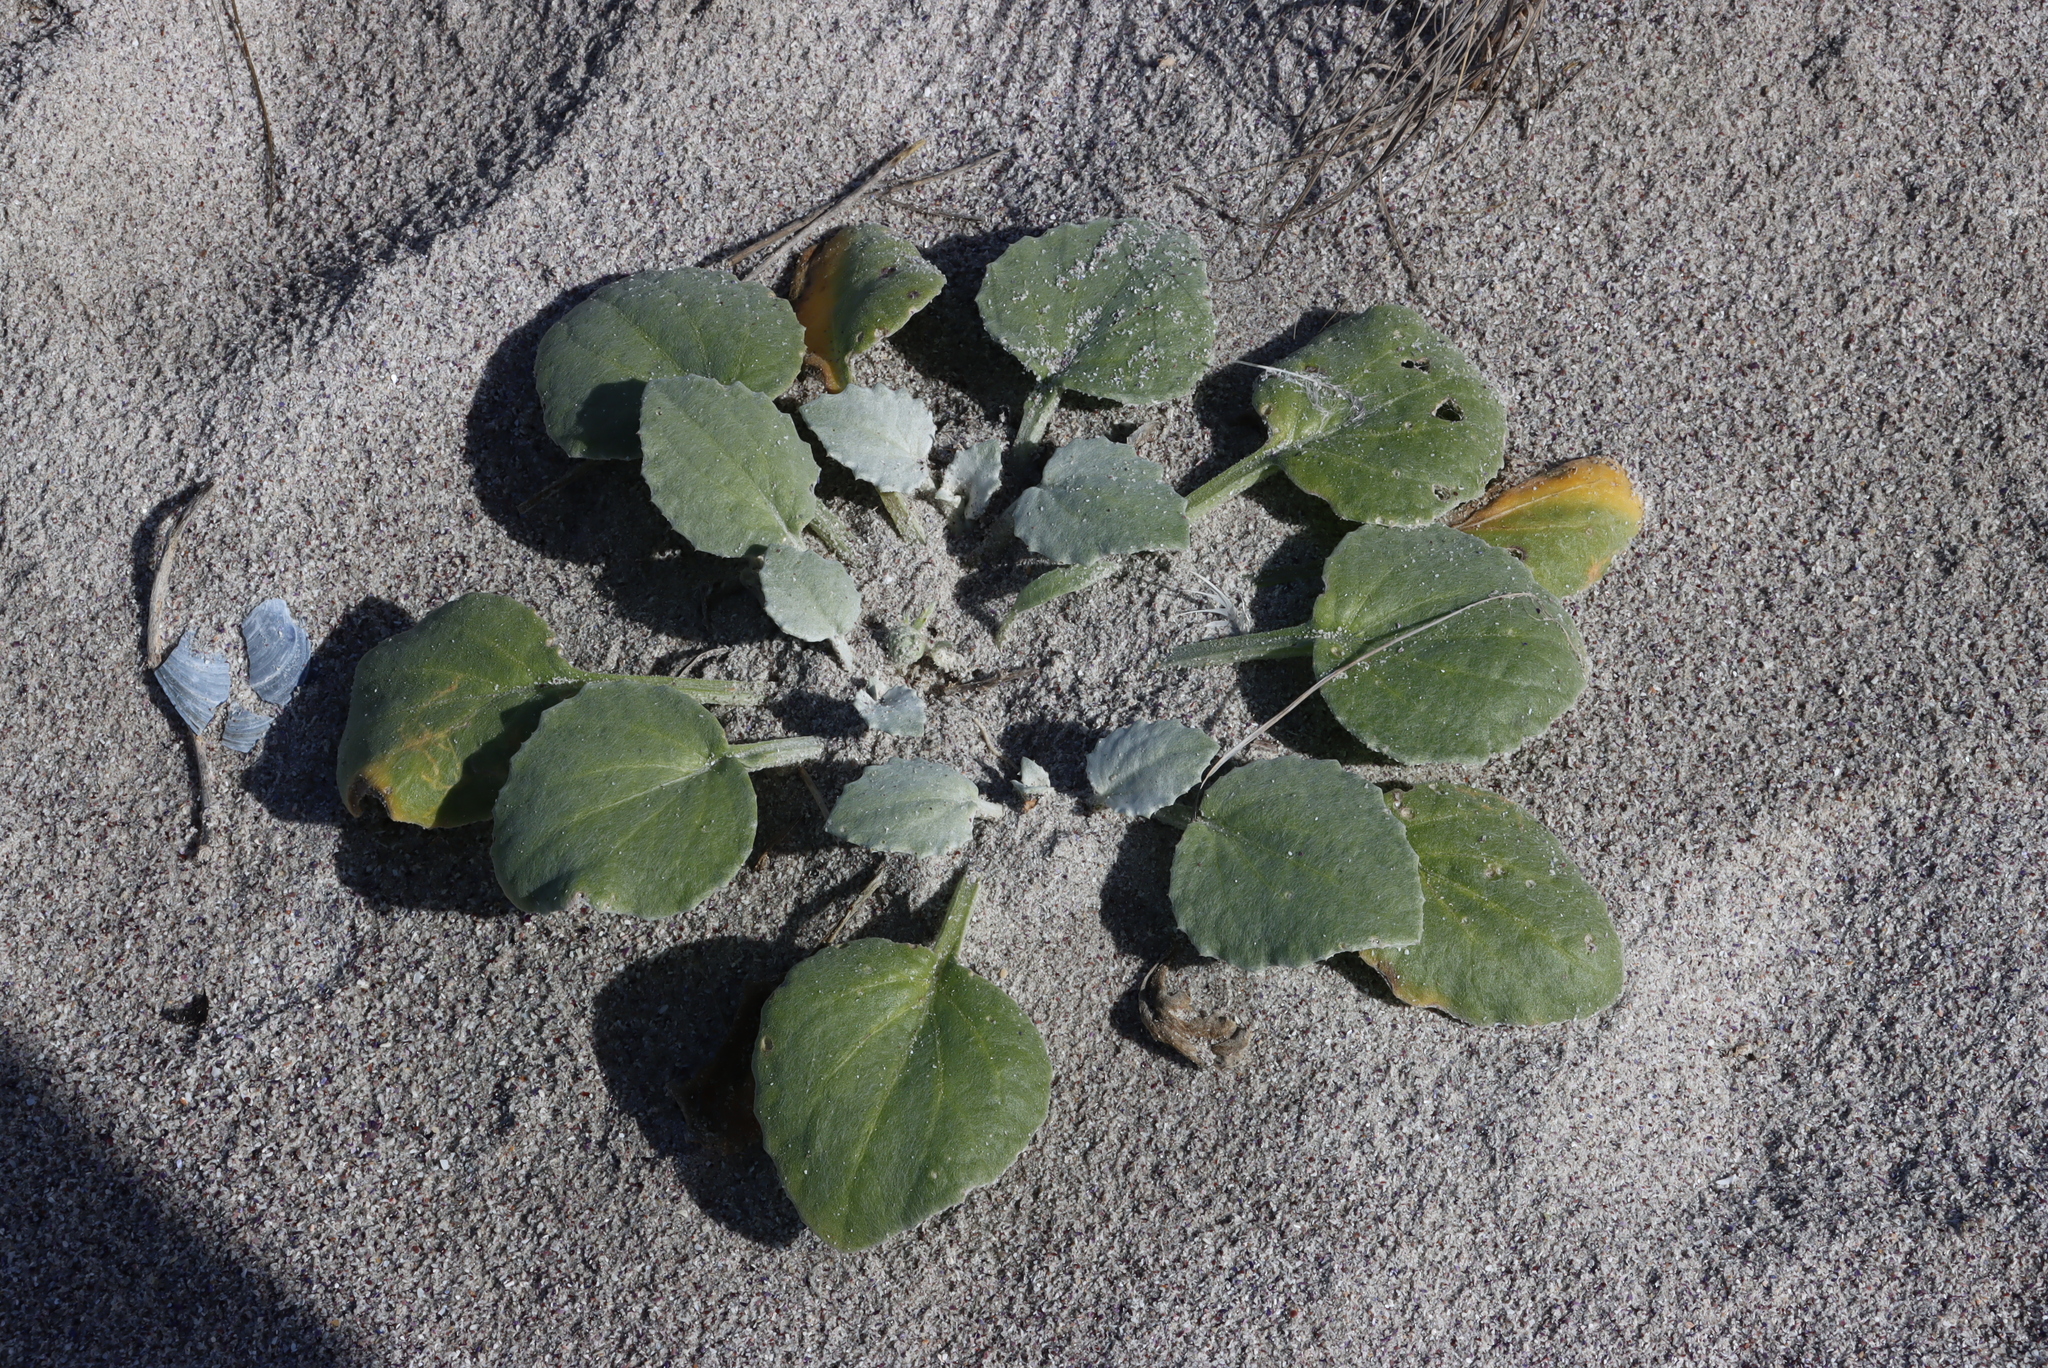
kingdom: Plantae
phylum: Tracheophyta
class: Magnoliopsida
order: Asterales
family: Asteraceae
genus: Arctotheca
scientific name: Arctotheca populifolia
